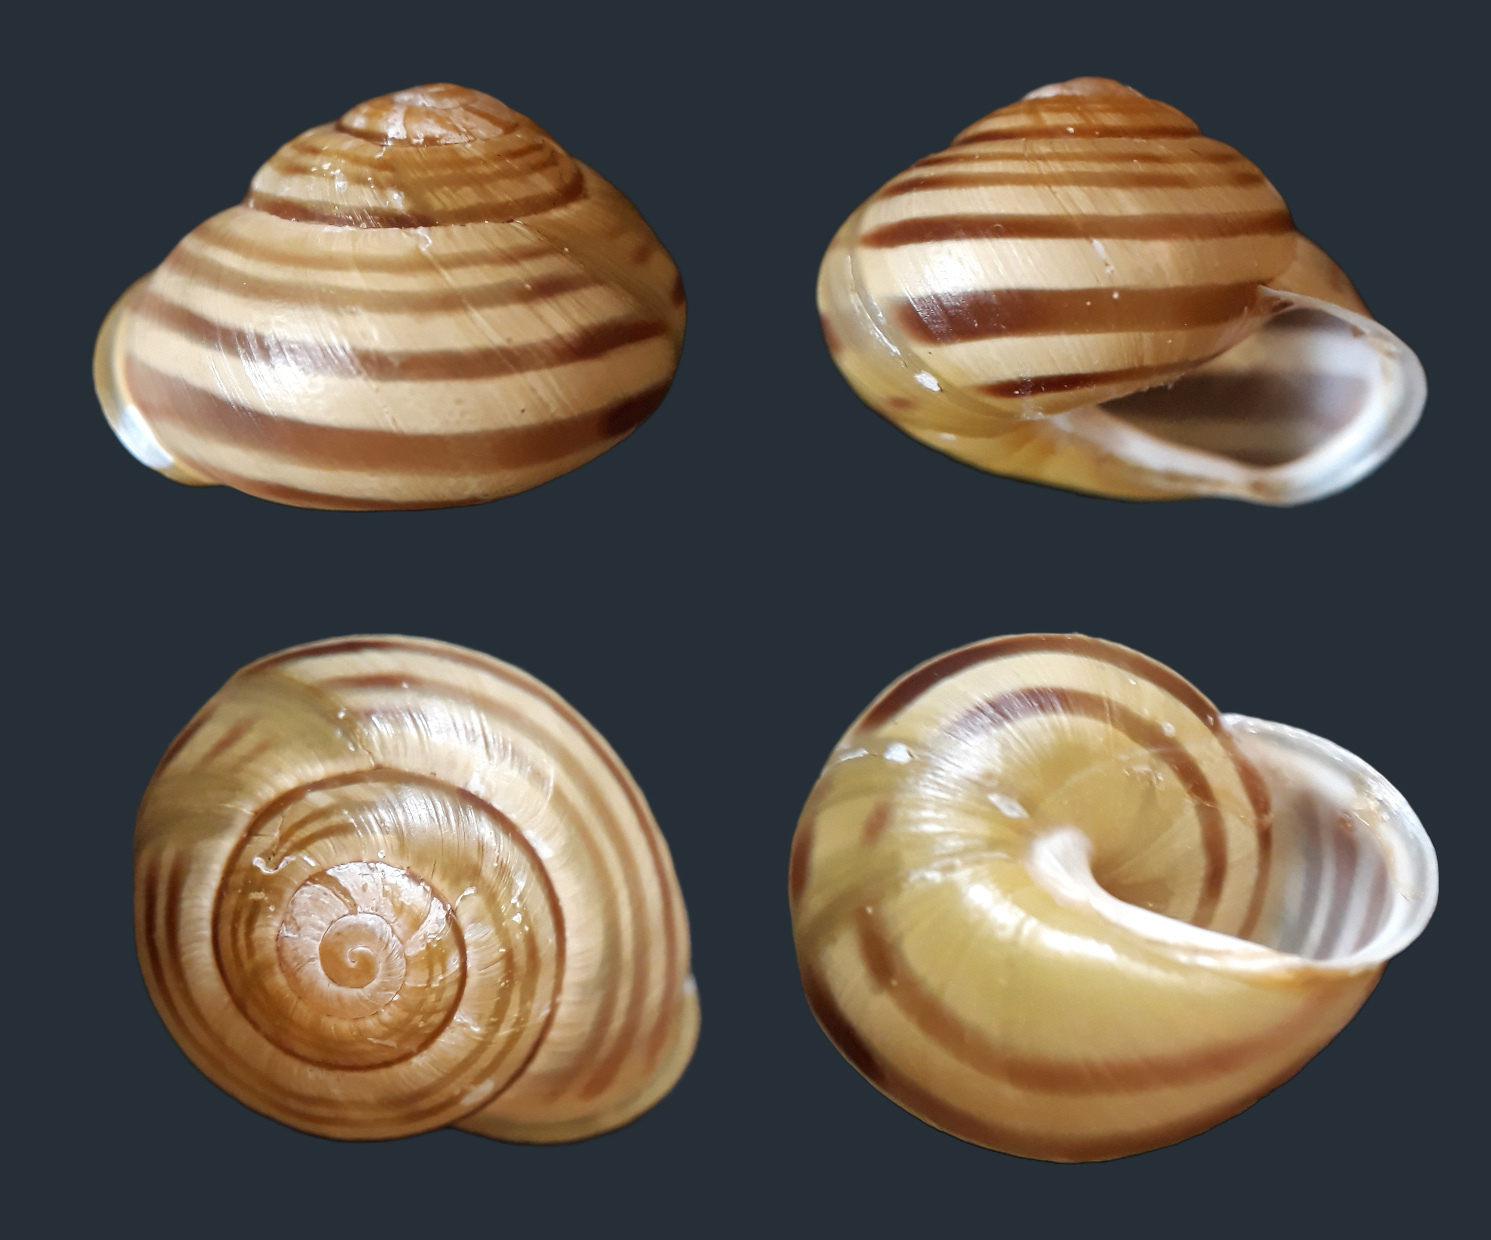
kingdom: Animalia
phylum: Mollusca
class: Gastropoda
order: Stylommatophora
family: Helicidae
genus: Cepaea
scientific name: Cepaea hortensis
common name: White-lip gardensnail
